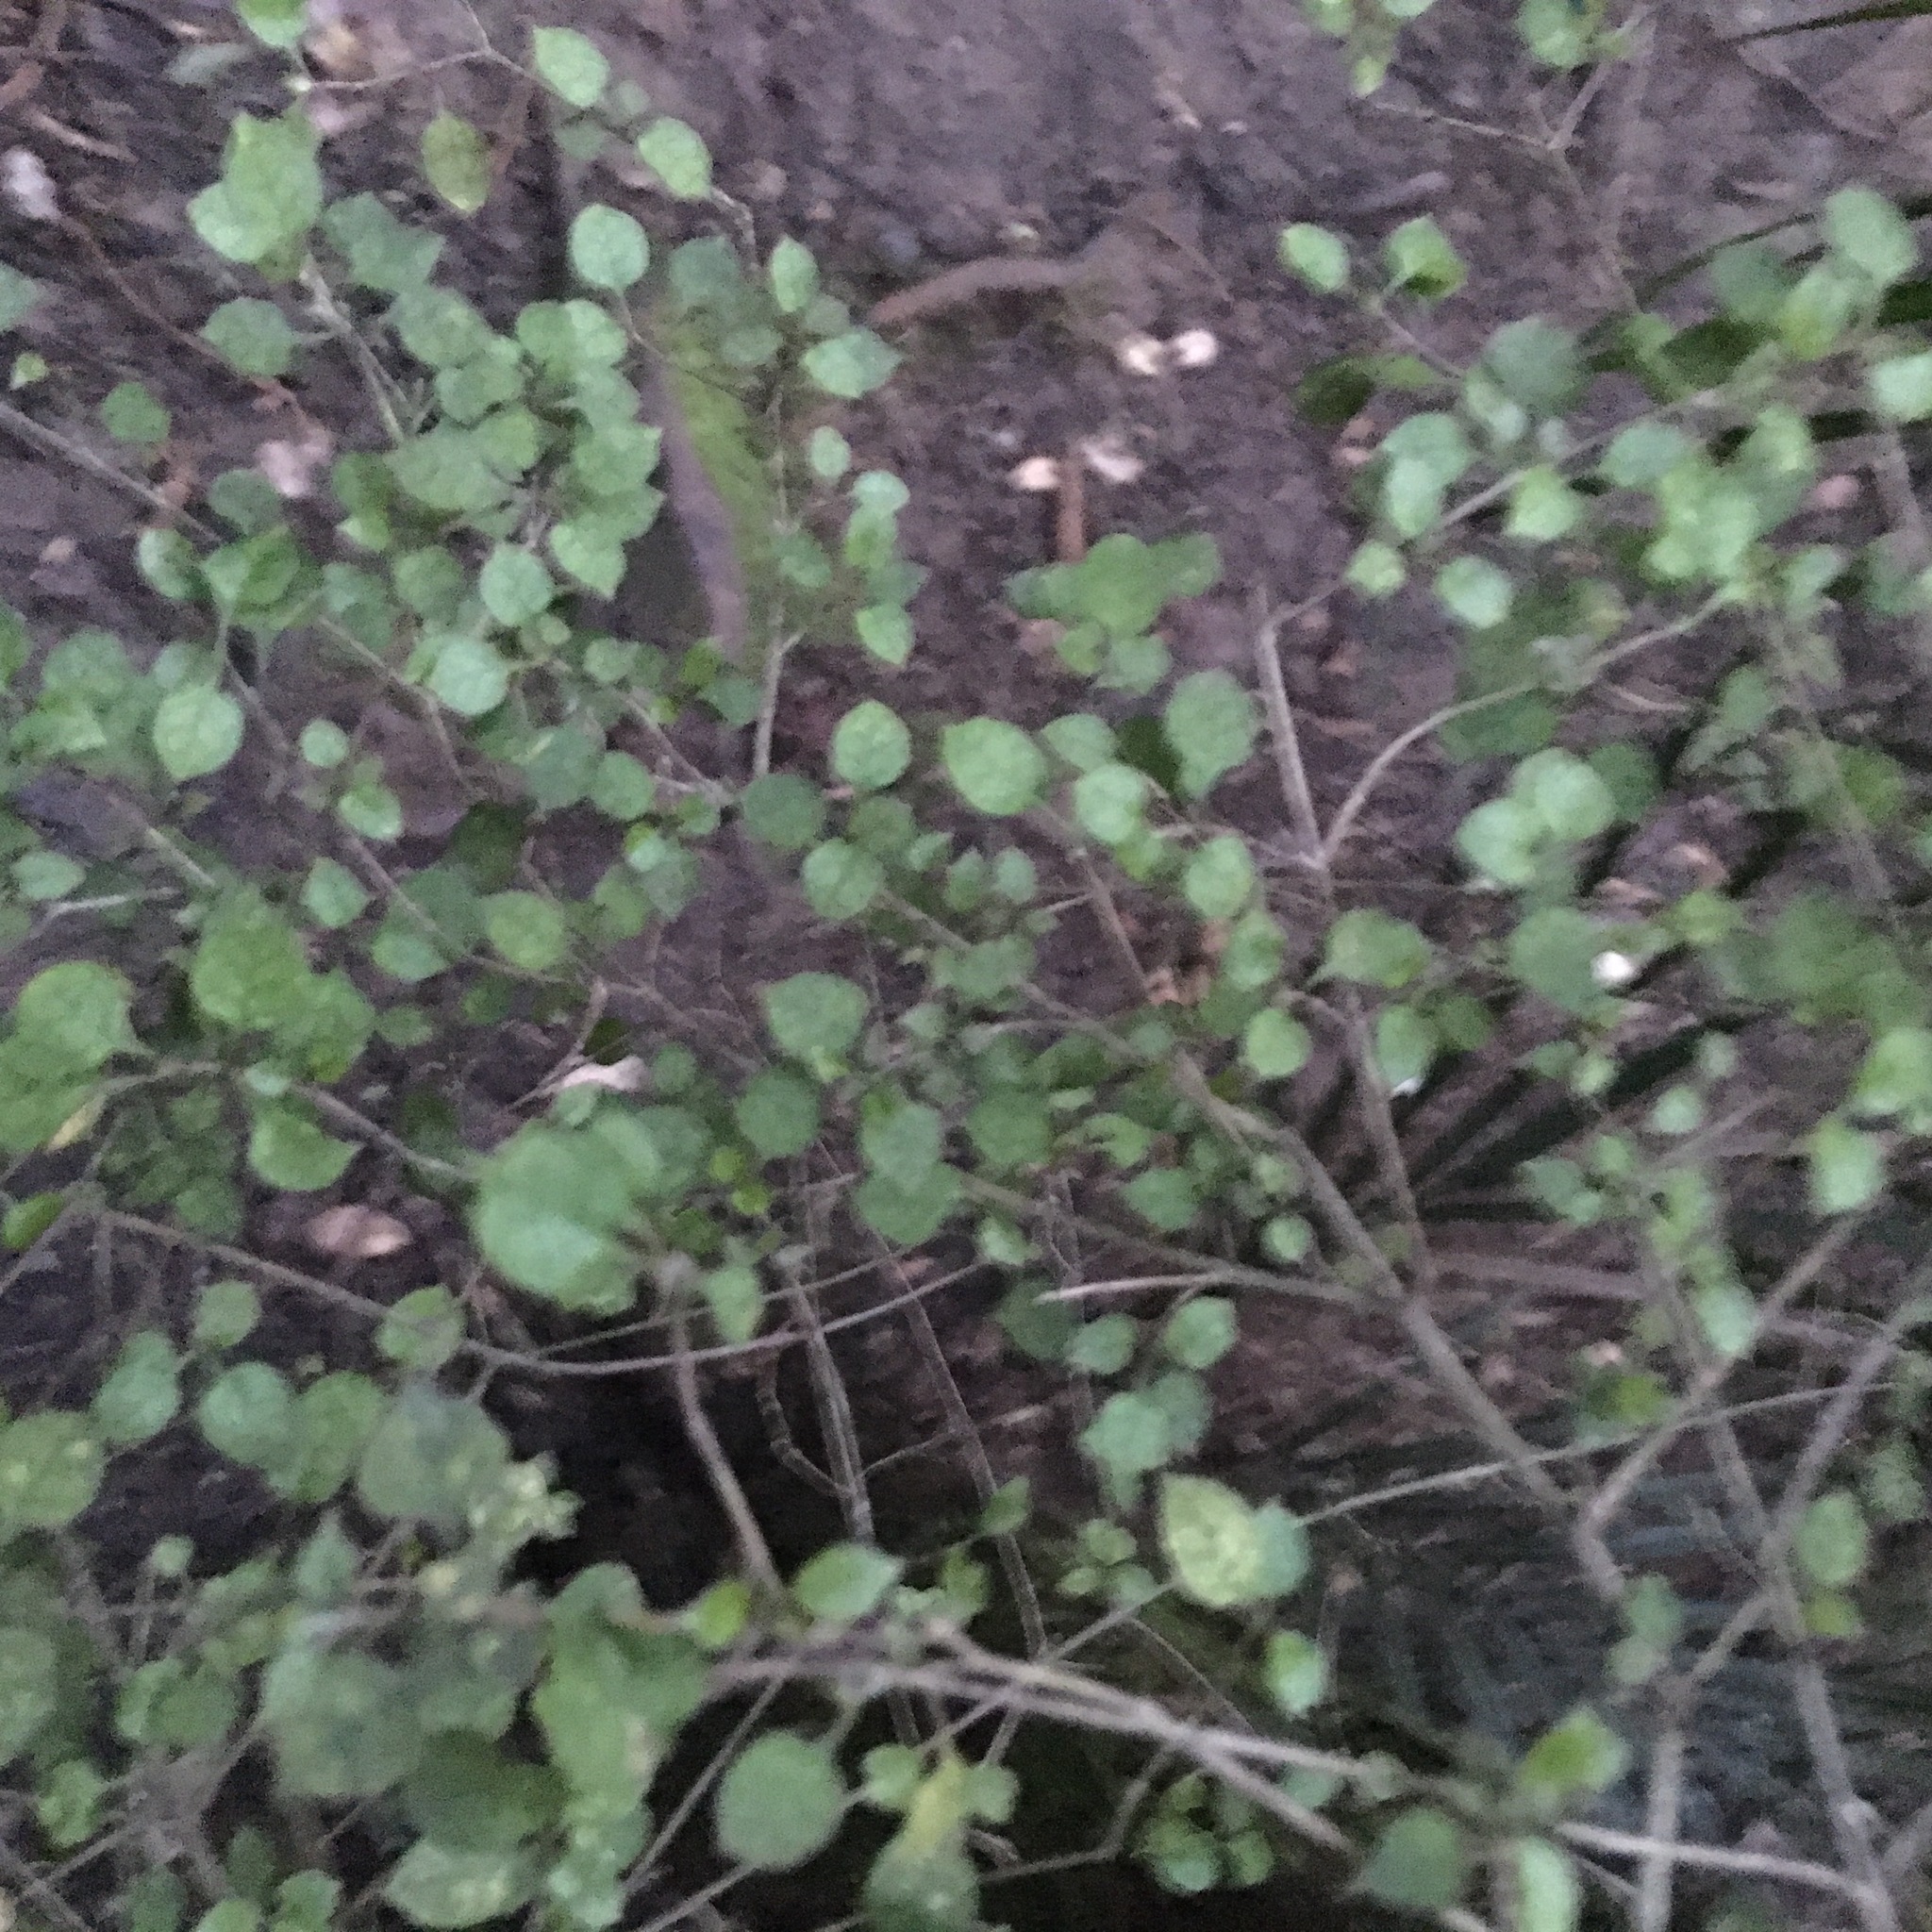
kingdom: Plantae
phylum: Tracheophyta
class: Magnoliopsida
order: Gentianales
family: Rubiaceae
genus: Coprosma
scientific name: Coprosma areolata
